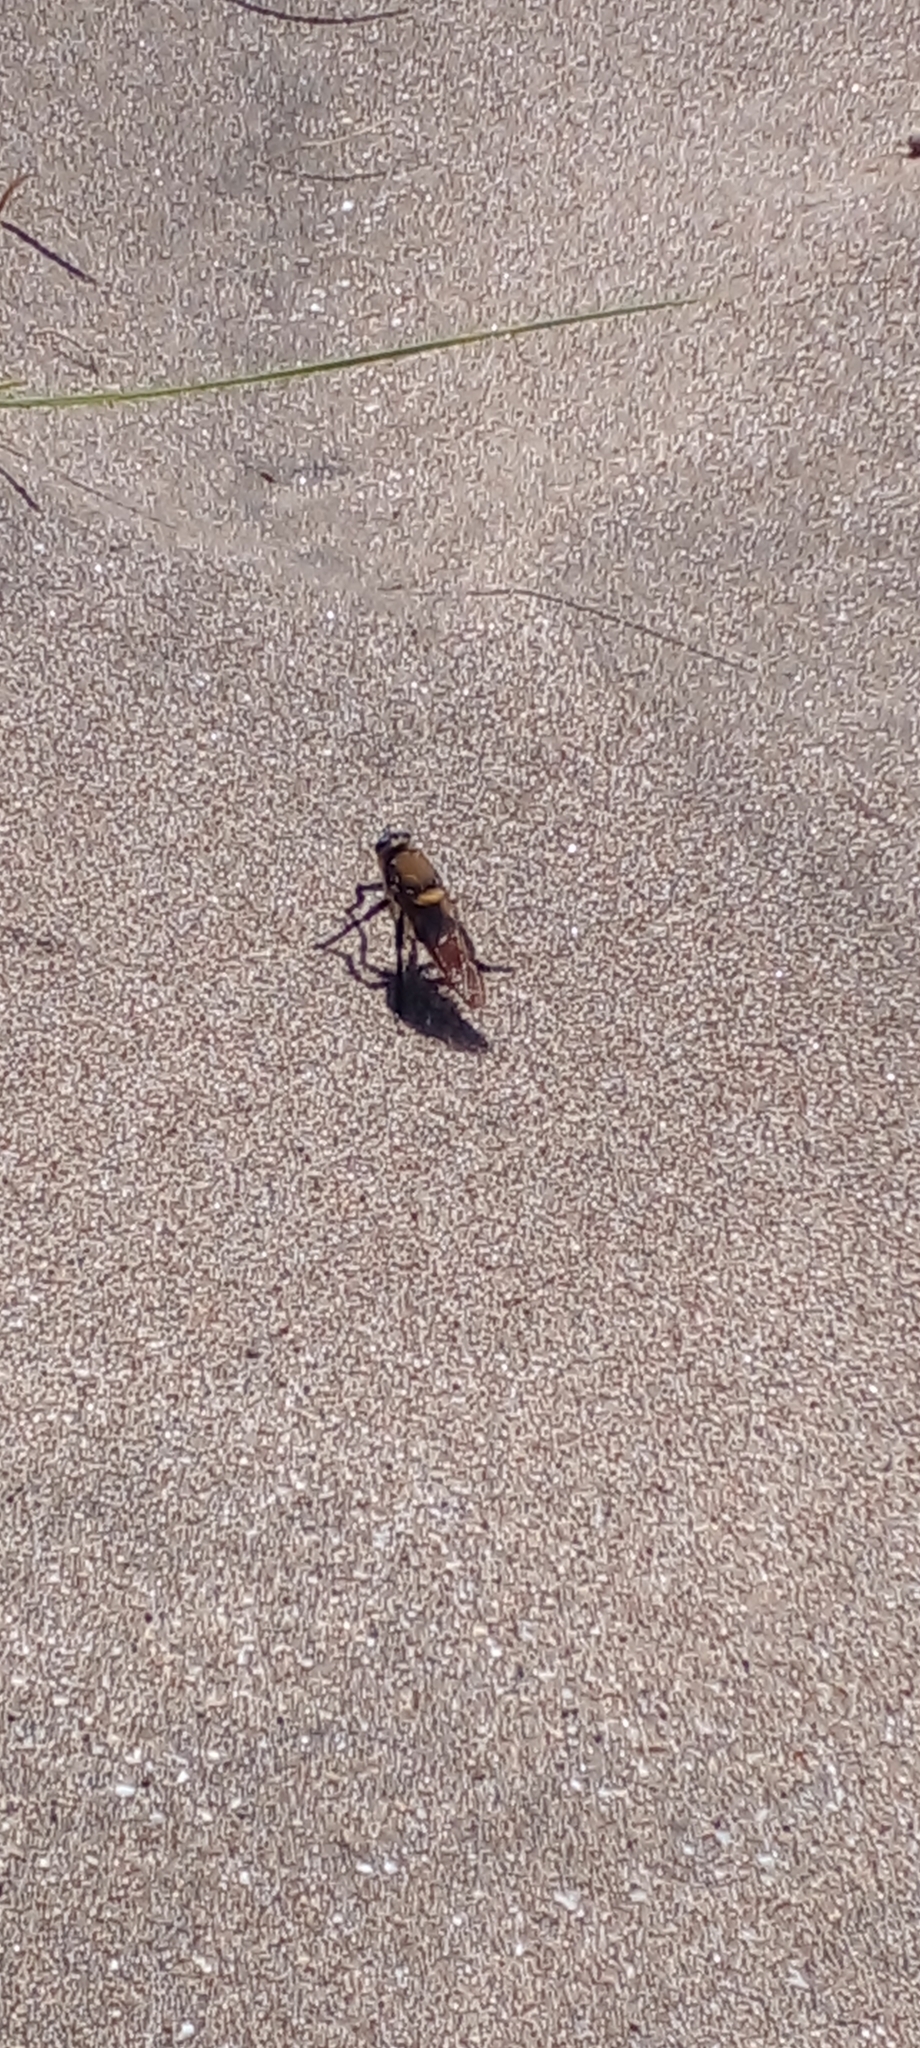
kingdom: Animalia
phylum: Arthropoda
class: Insecta
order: Diptera
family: Asilidae
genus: Eccritosia
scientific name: Eccritosia rubriventris
